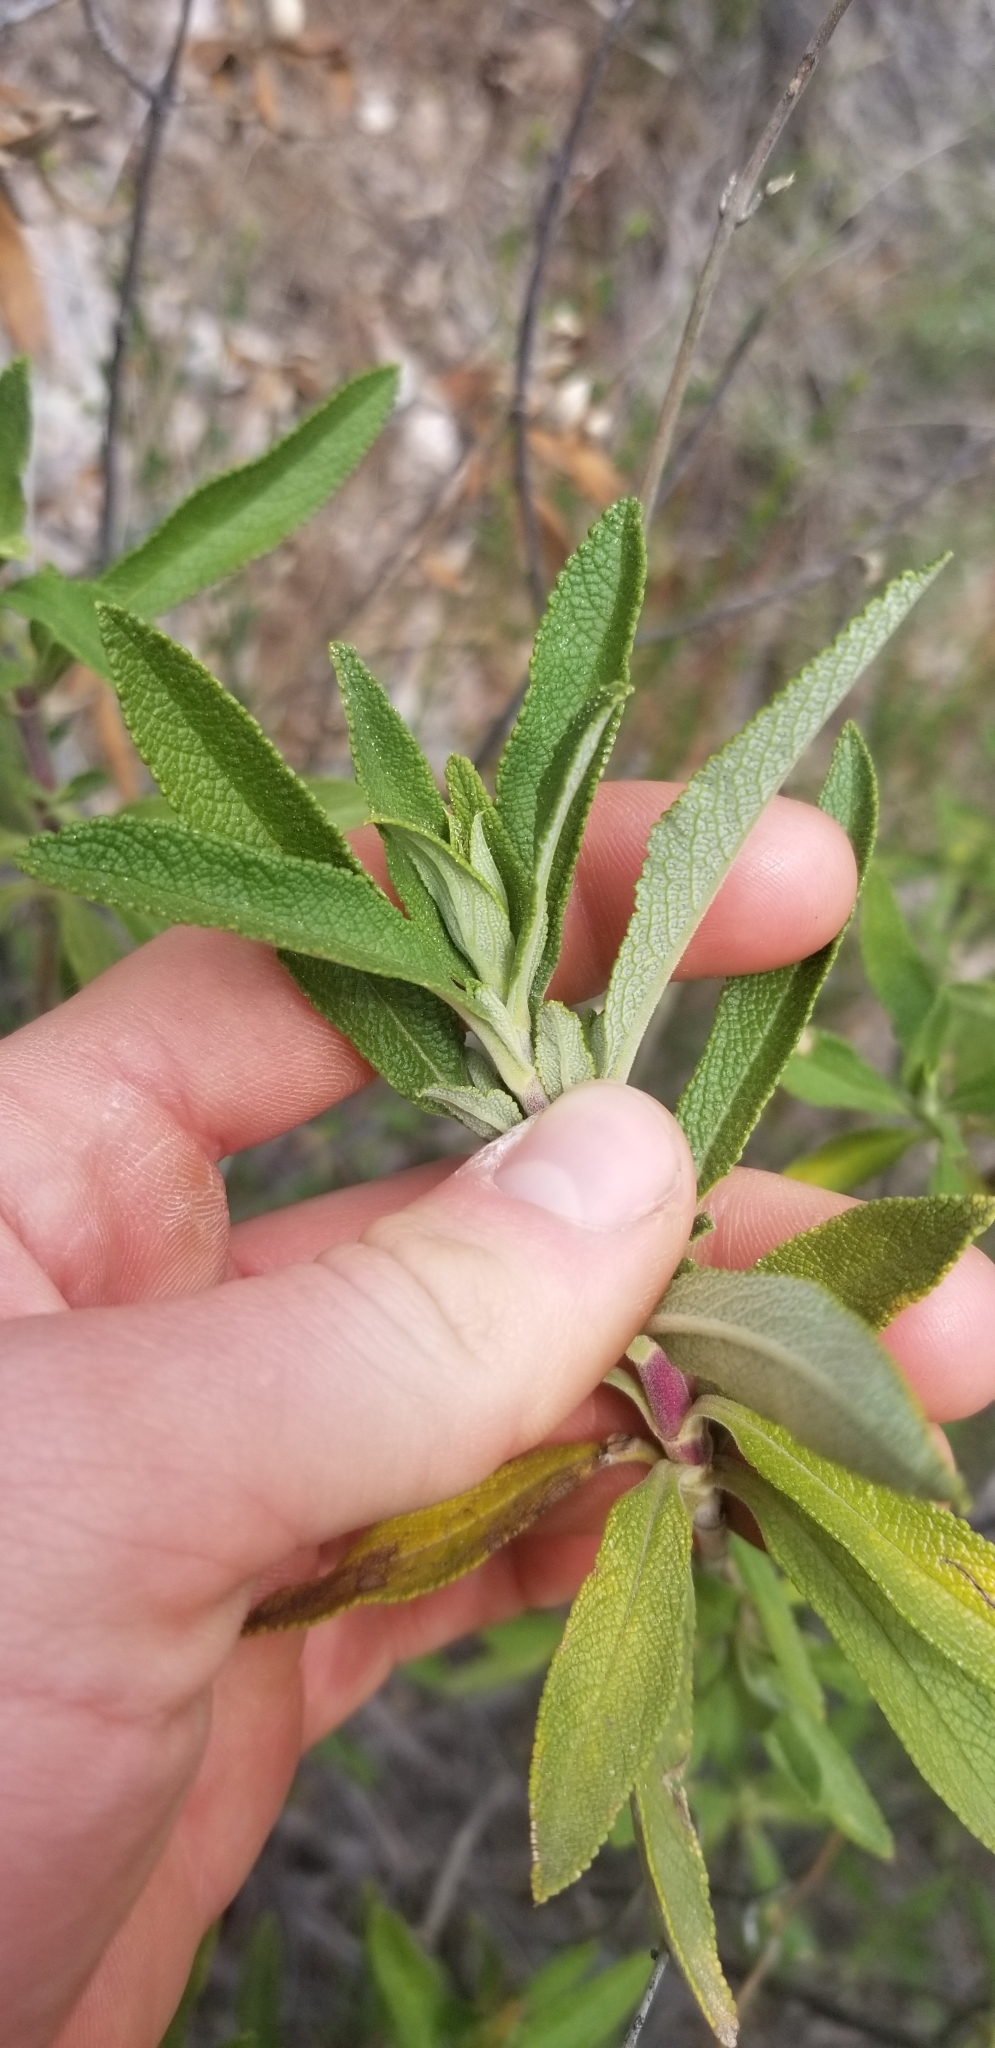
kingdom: Plantae
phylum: Tracheophyta
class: Magnoliopsida
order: Lamiales
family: Lamiaceae
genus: Salvia
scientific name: Salvia mellifera
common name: Black sage
